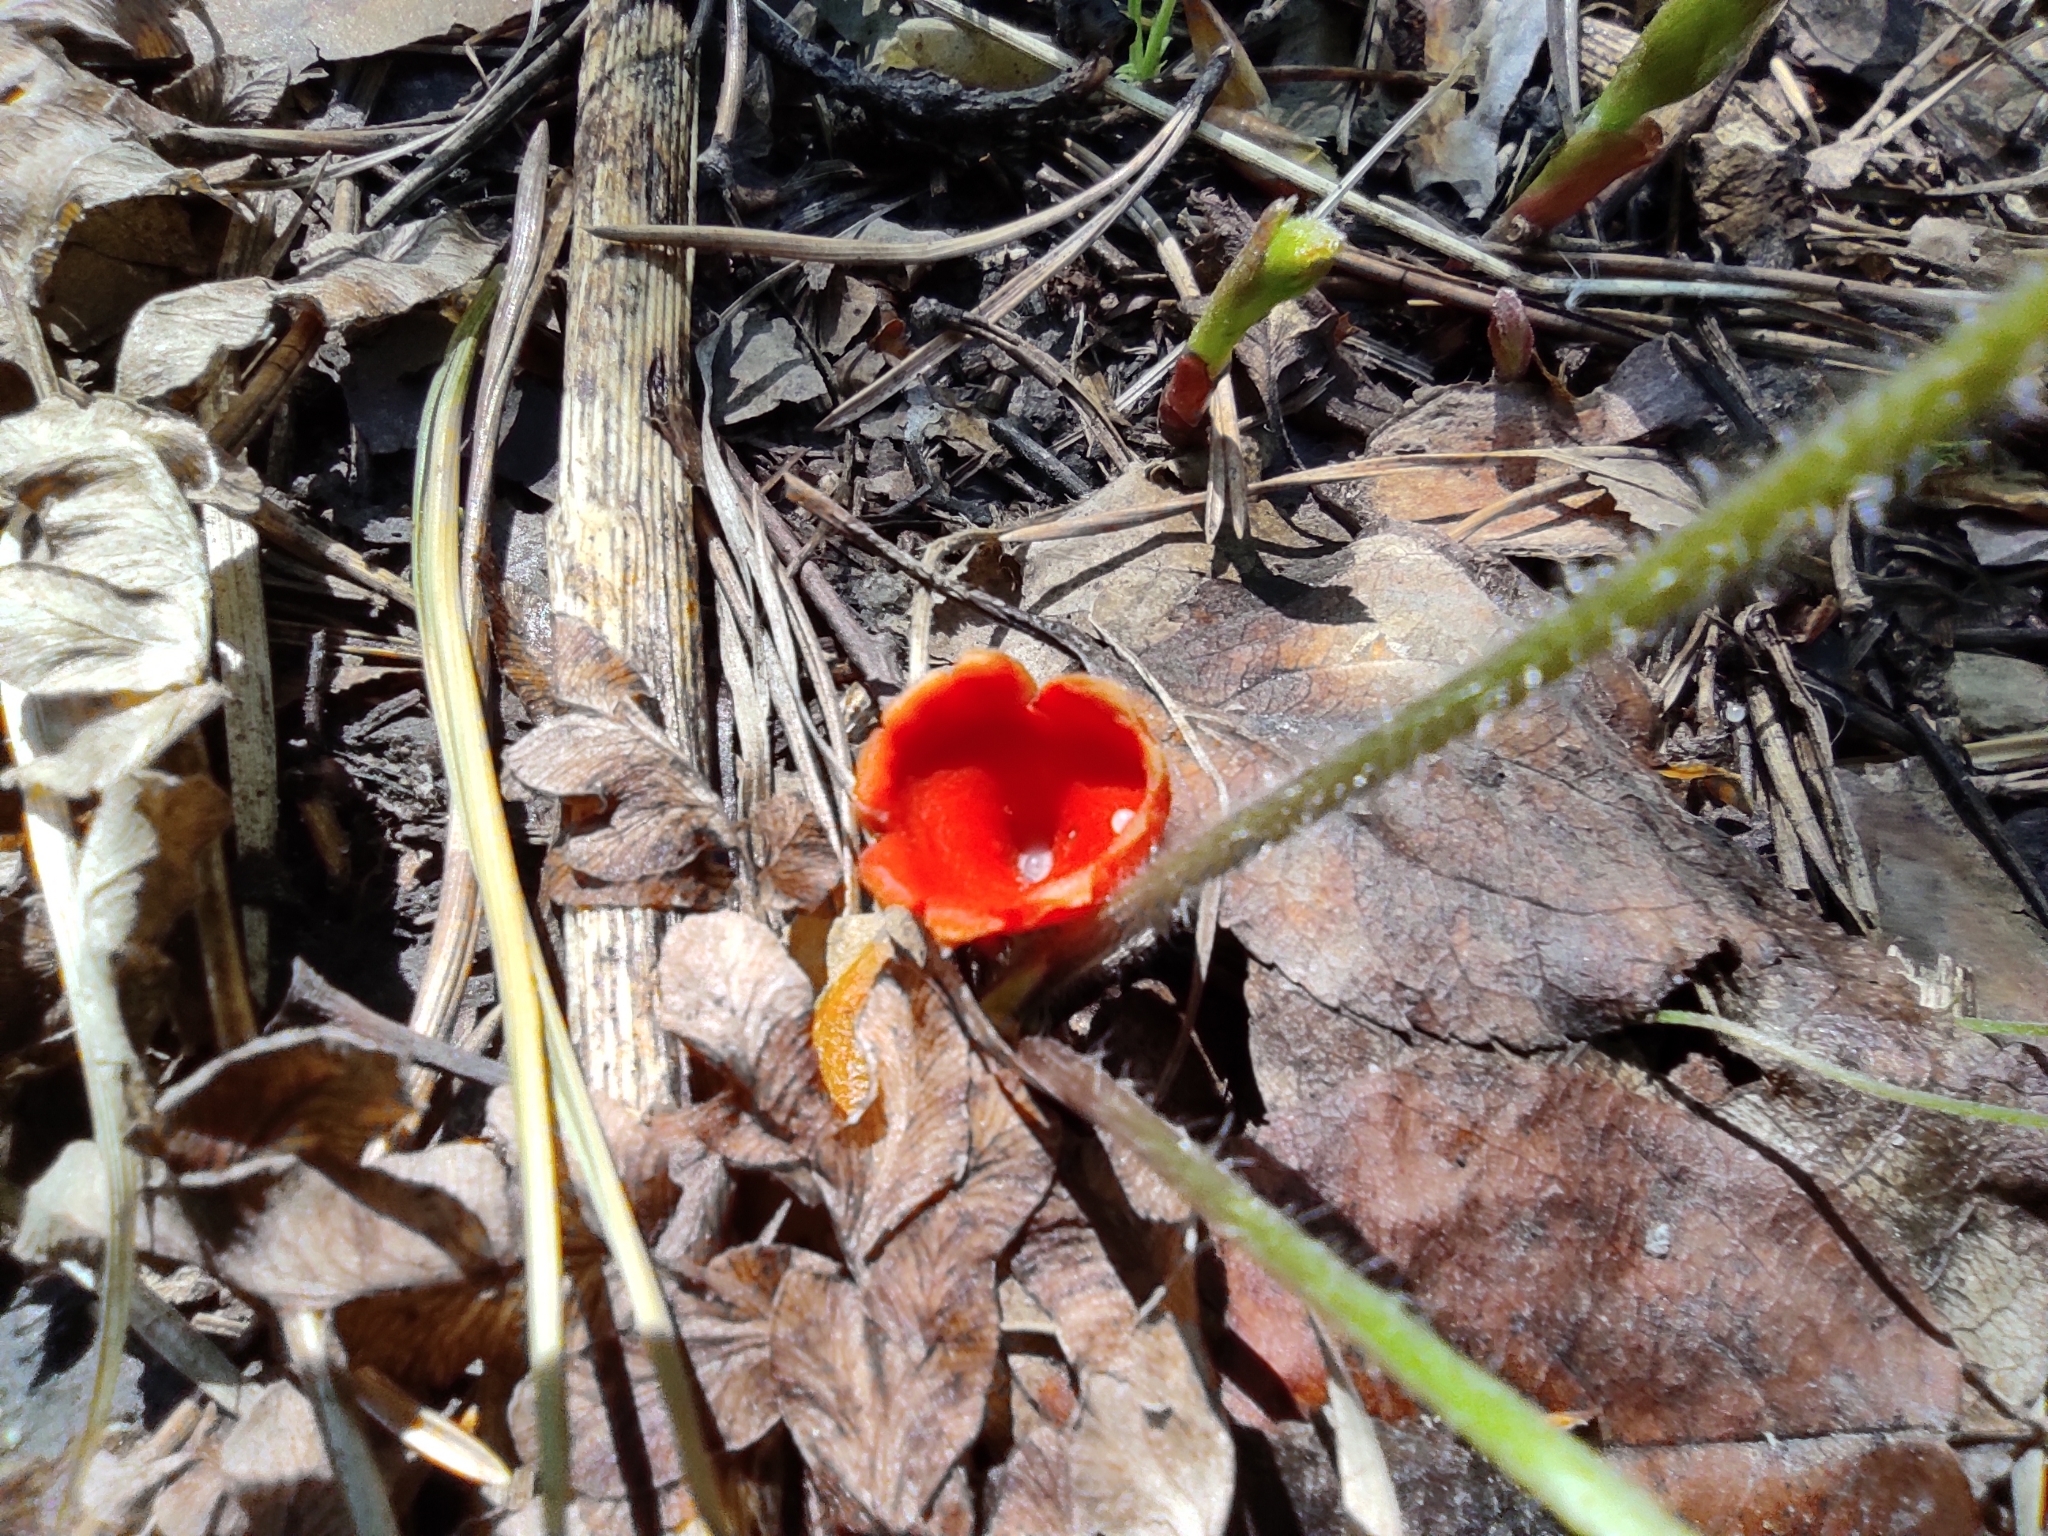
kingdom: Fungi
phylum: Ascomycota
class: Pezizomycetes
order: Pezizales
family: Sarcoscyphaceae
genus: Microstoma
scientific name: Microstoma protractum
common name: Rosy goblet
